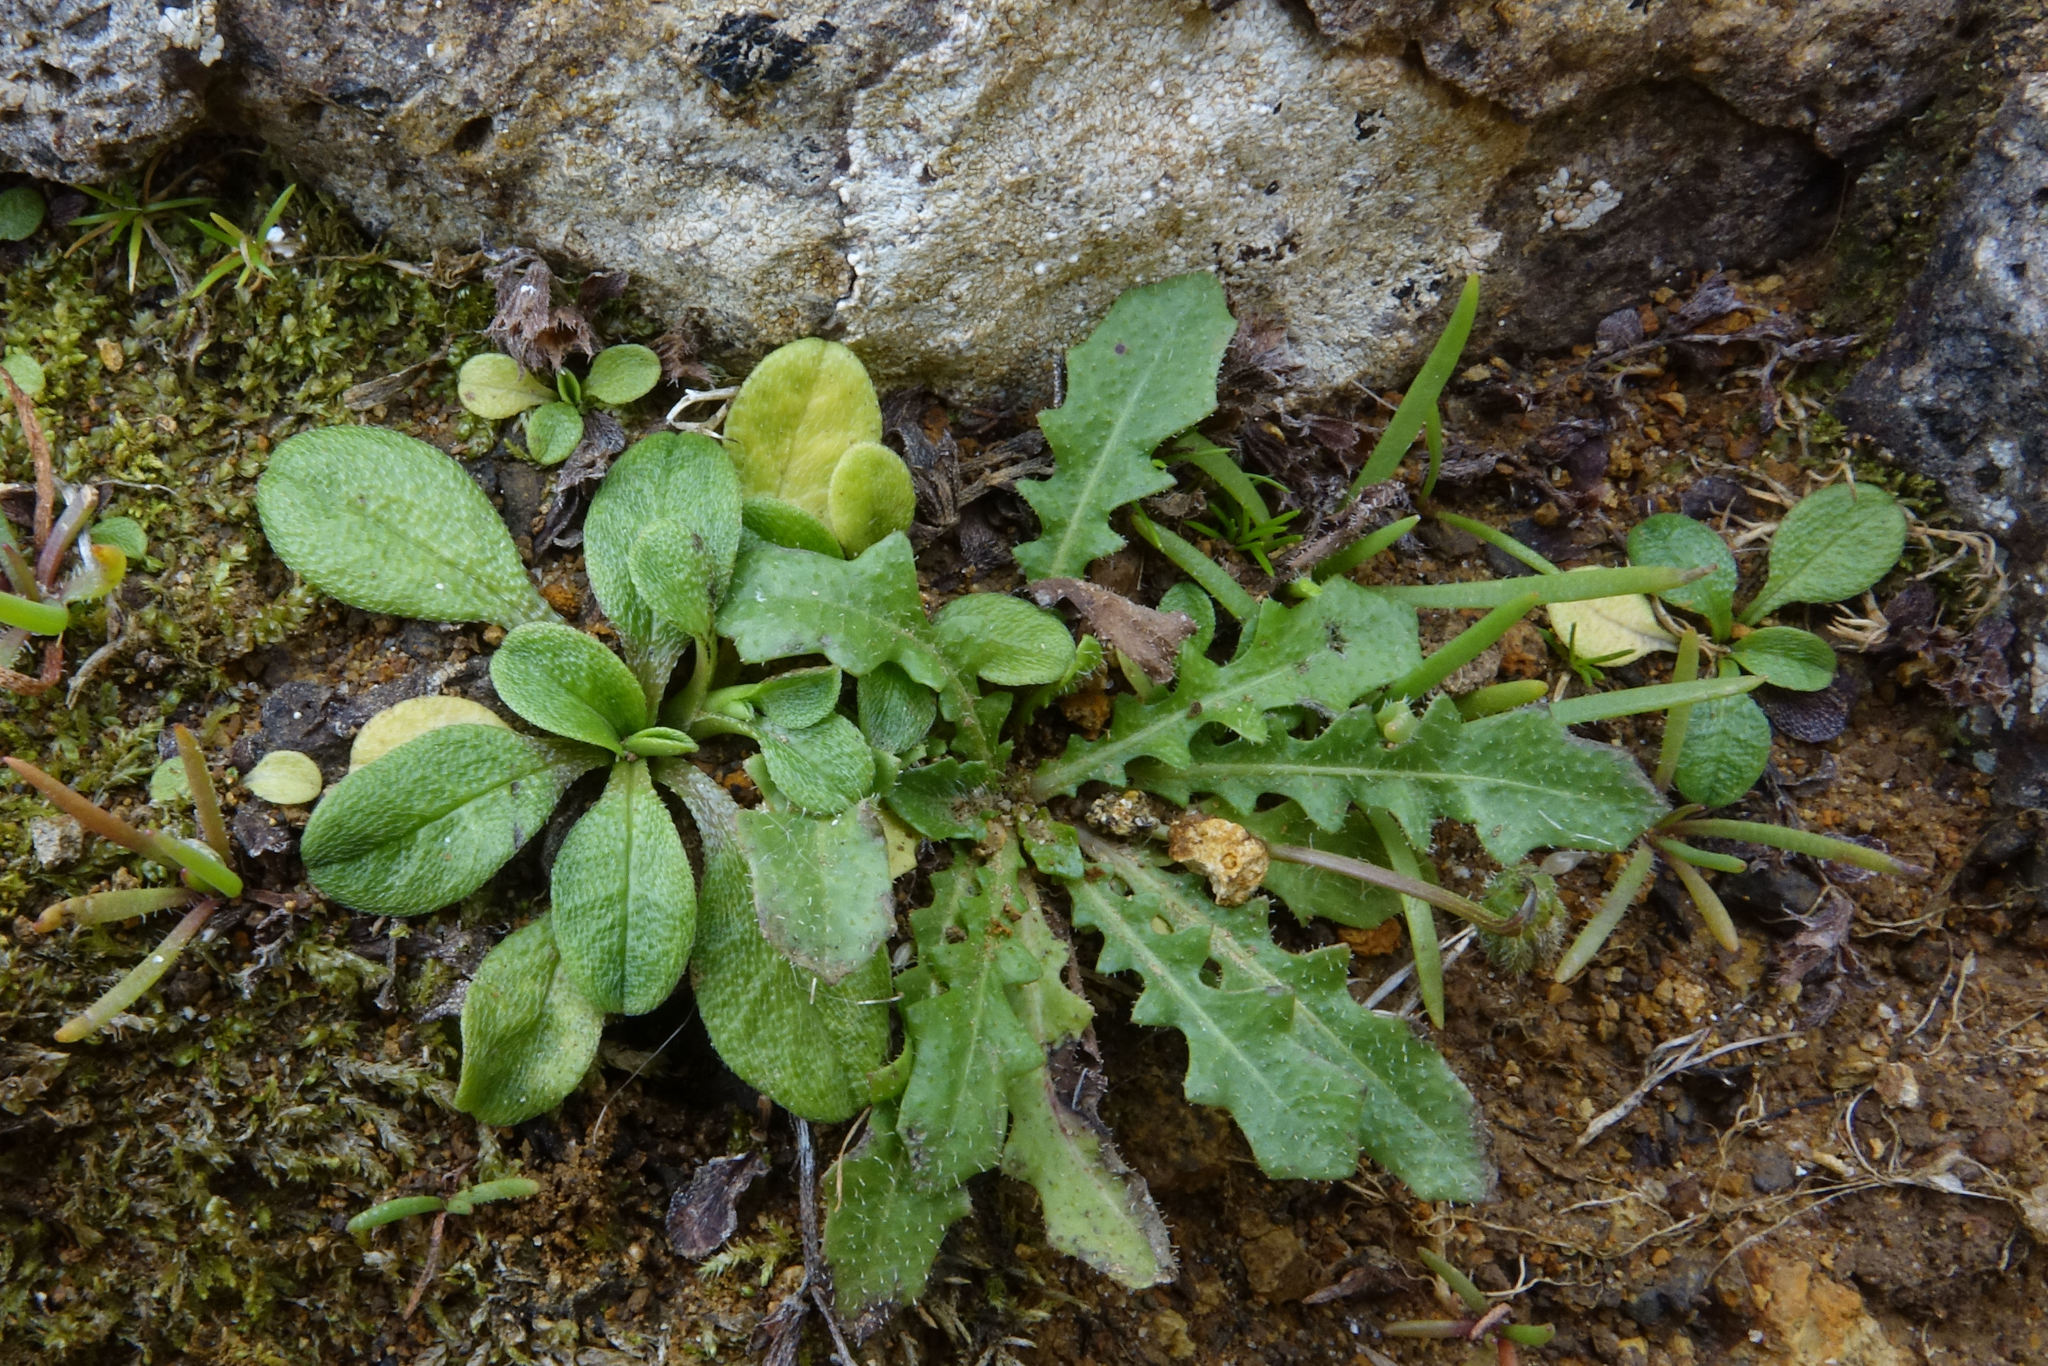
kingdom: Plantae
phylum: Tracheophyta
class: Magnoliopsida
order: Boraginales
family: Boraginaceae
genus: Myosotis
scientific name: Myosotis antarctica
